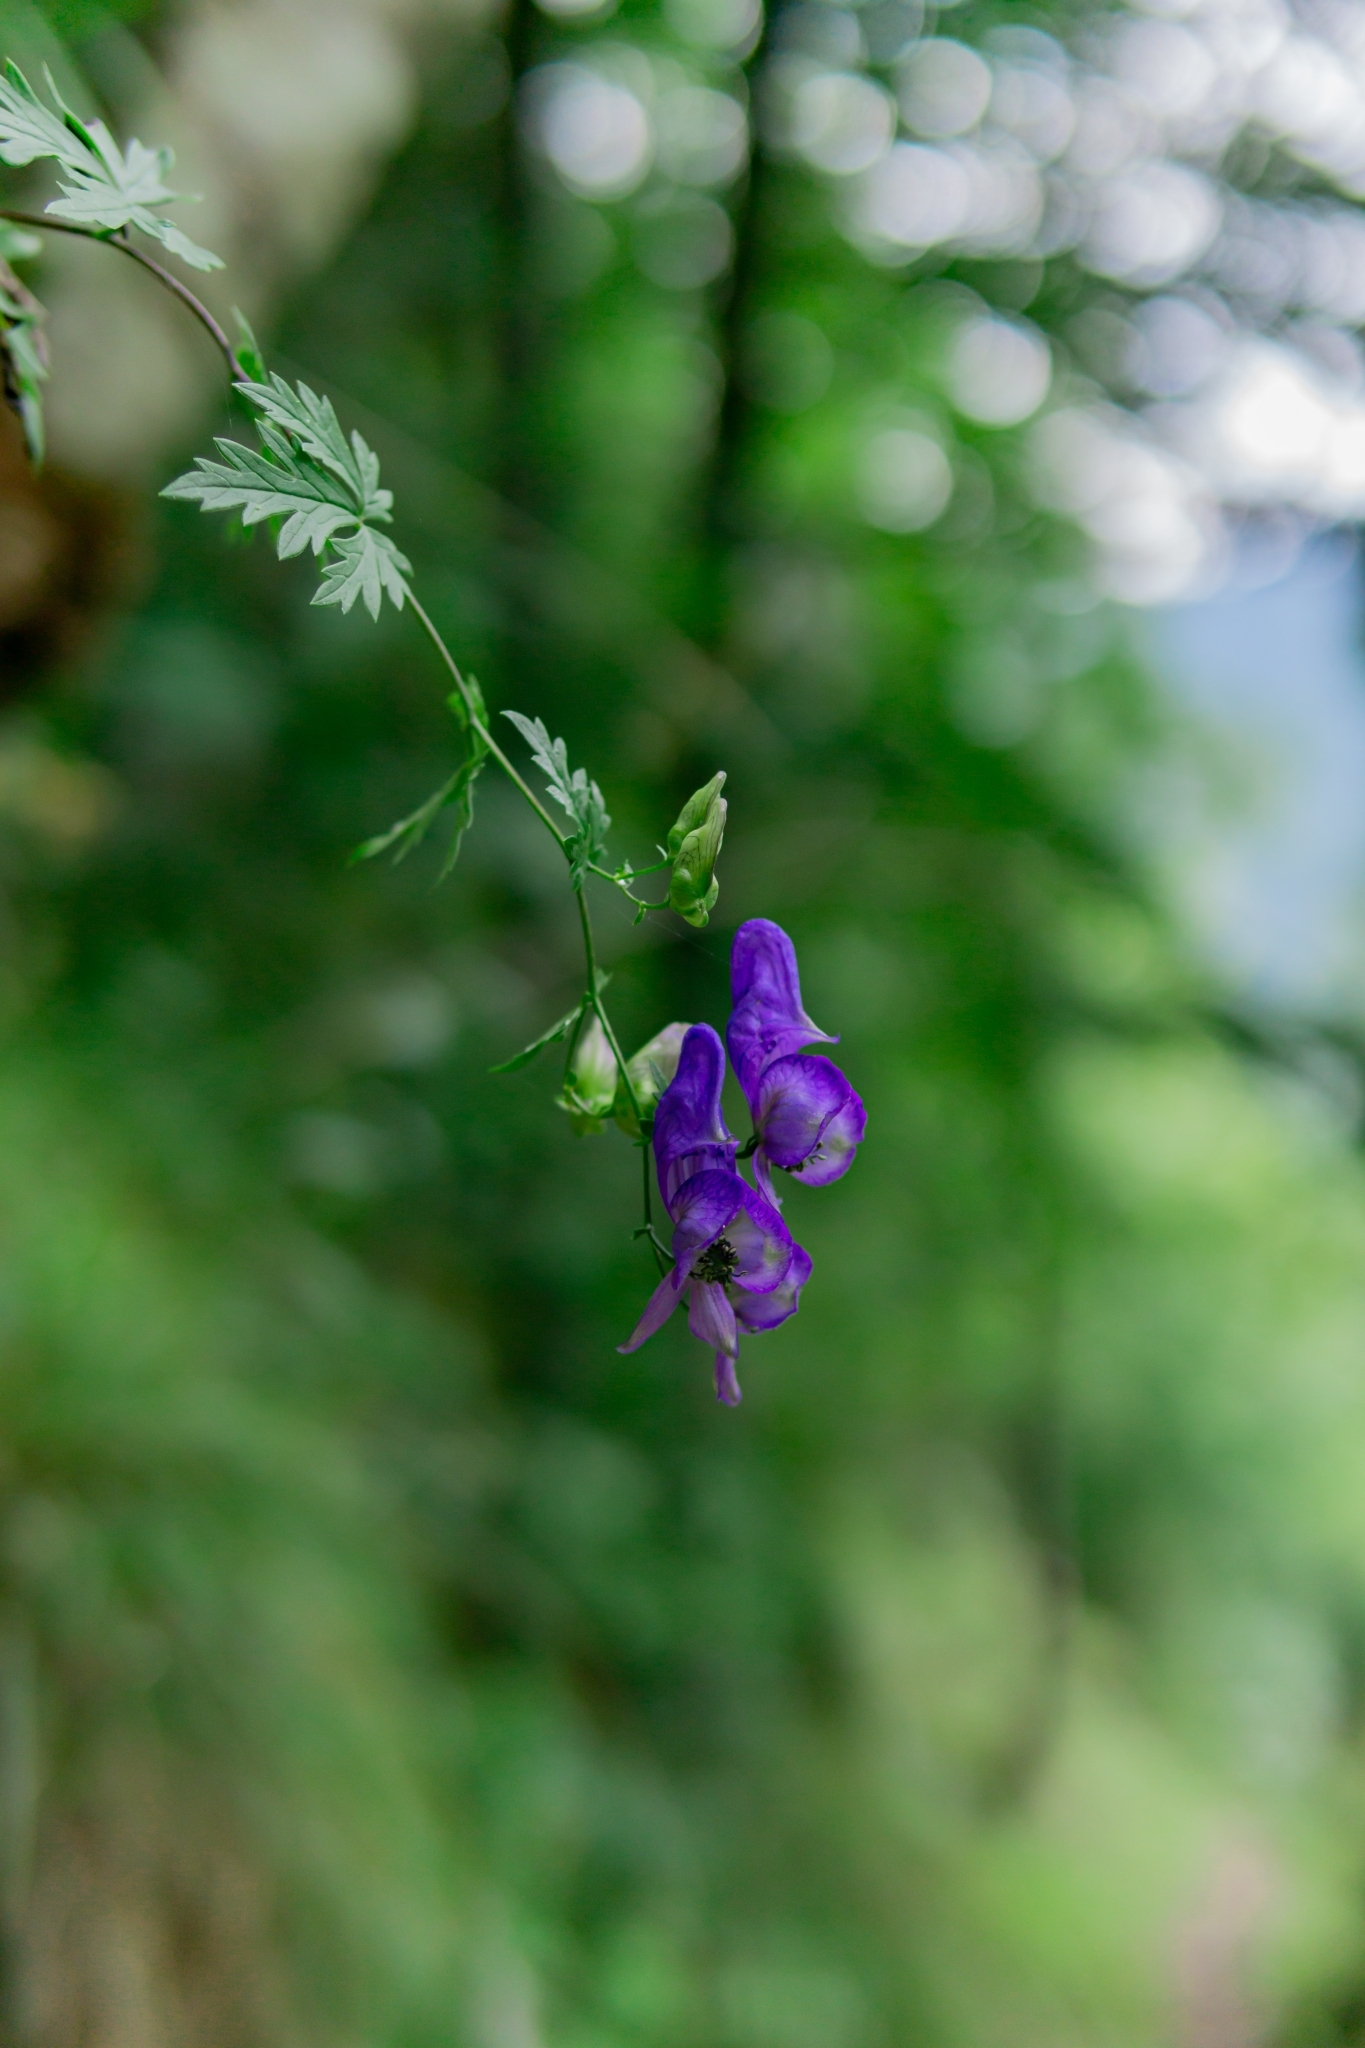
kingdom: Plantae
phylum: Tracheophyta
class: Magnoliopsida
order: Ranunculales
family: Ranunculaceae
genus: Aconitum
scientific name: Aconitum variegatum
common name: Manchurian monkshood
